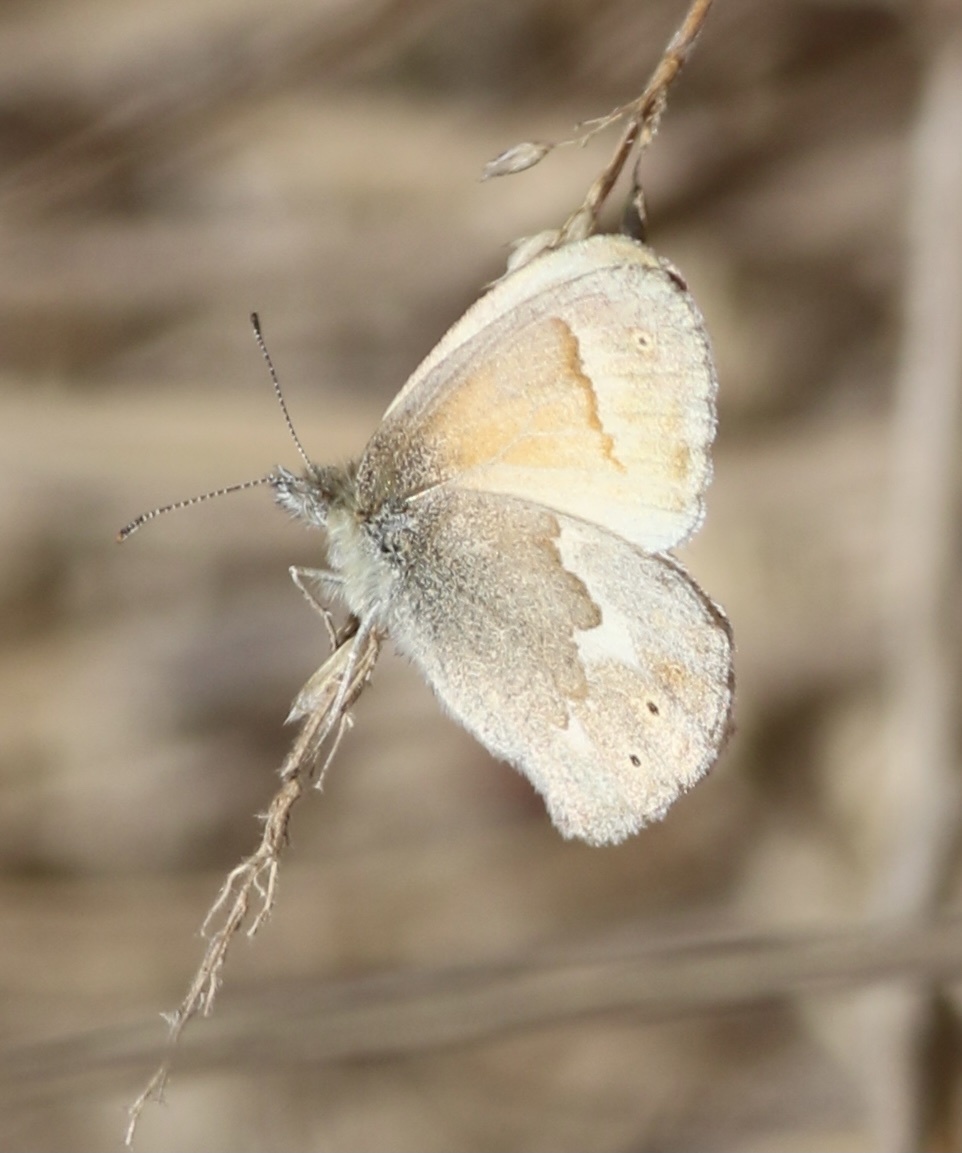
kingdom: Animalia
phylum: Arthropoda
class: Insecta
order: Lepidoptera
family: Nymphalidae
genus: Coenonympha
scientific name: Coenonympha california
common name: Common ringlet
